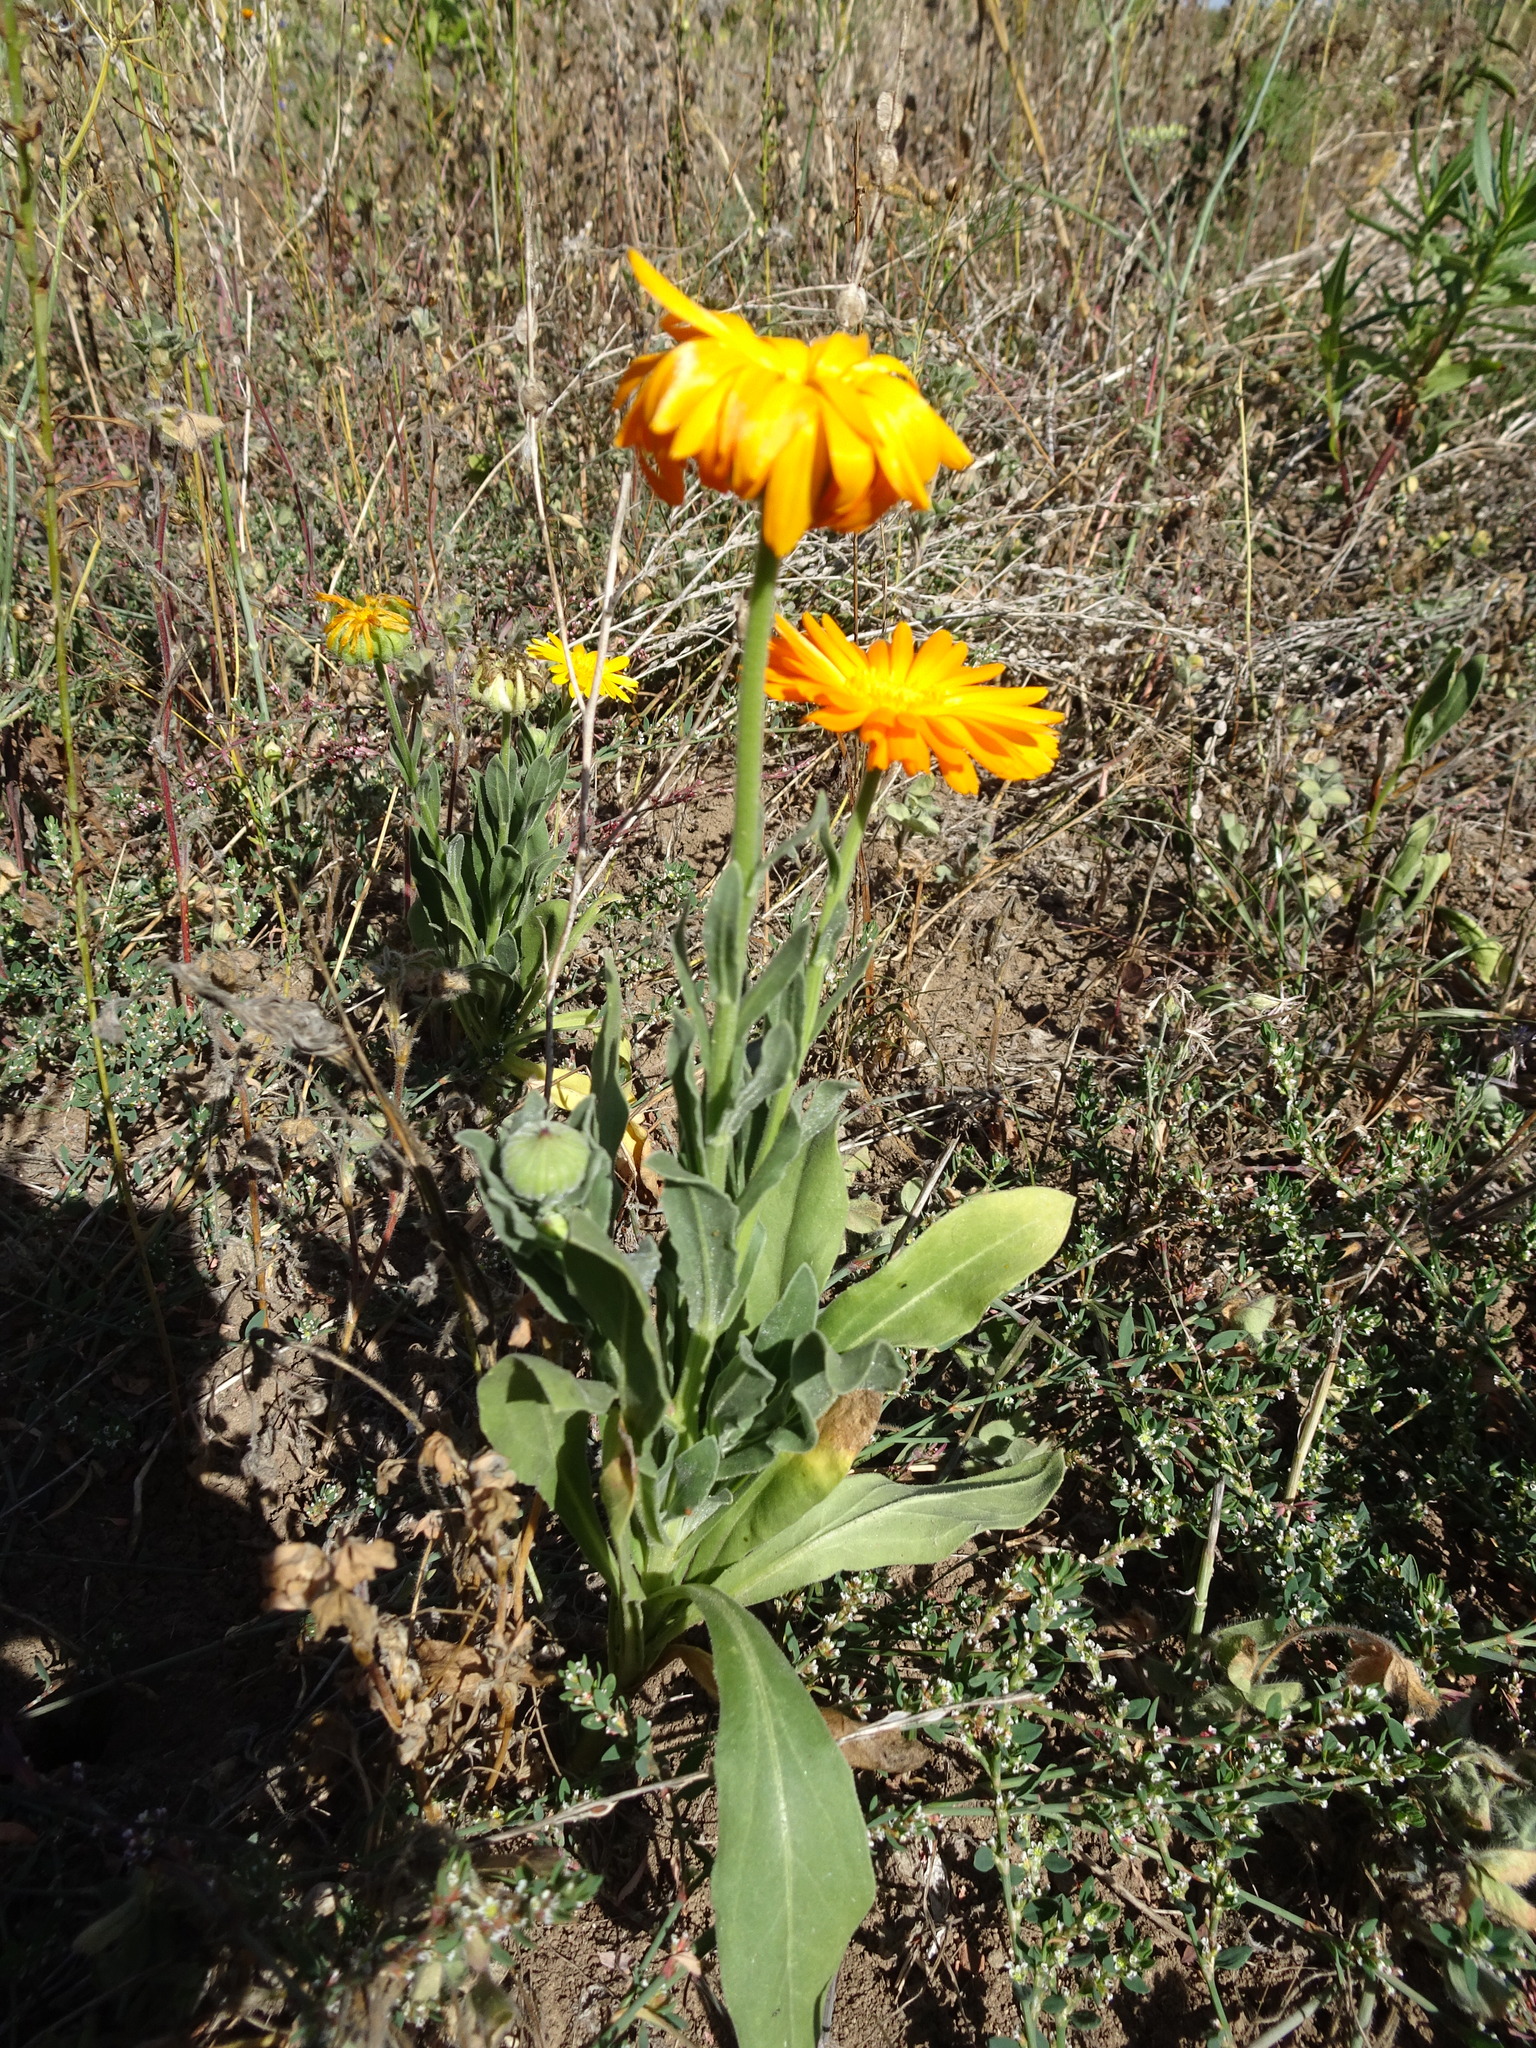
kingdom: Plantae
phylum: Tracheophyta
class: Magnoliopsida
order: Asterales
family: Asteraceae
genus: Calendula
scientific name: Calendula officinalis
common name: Pot marigold
